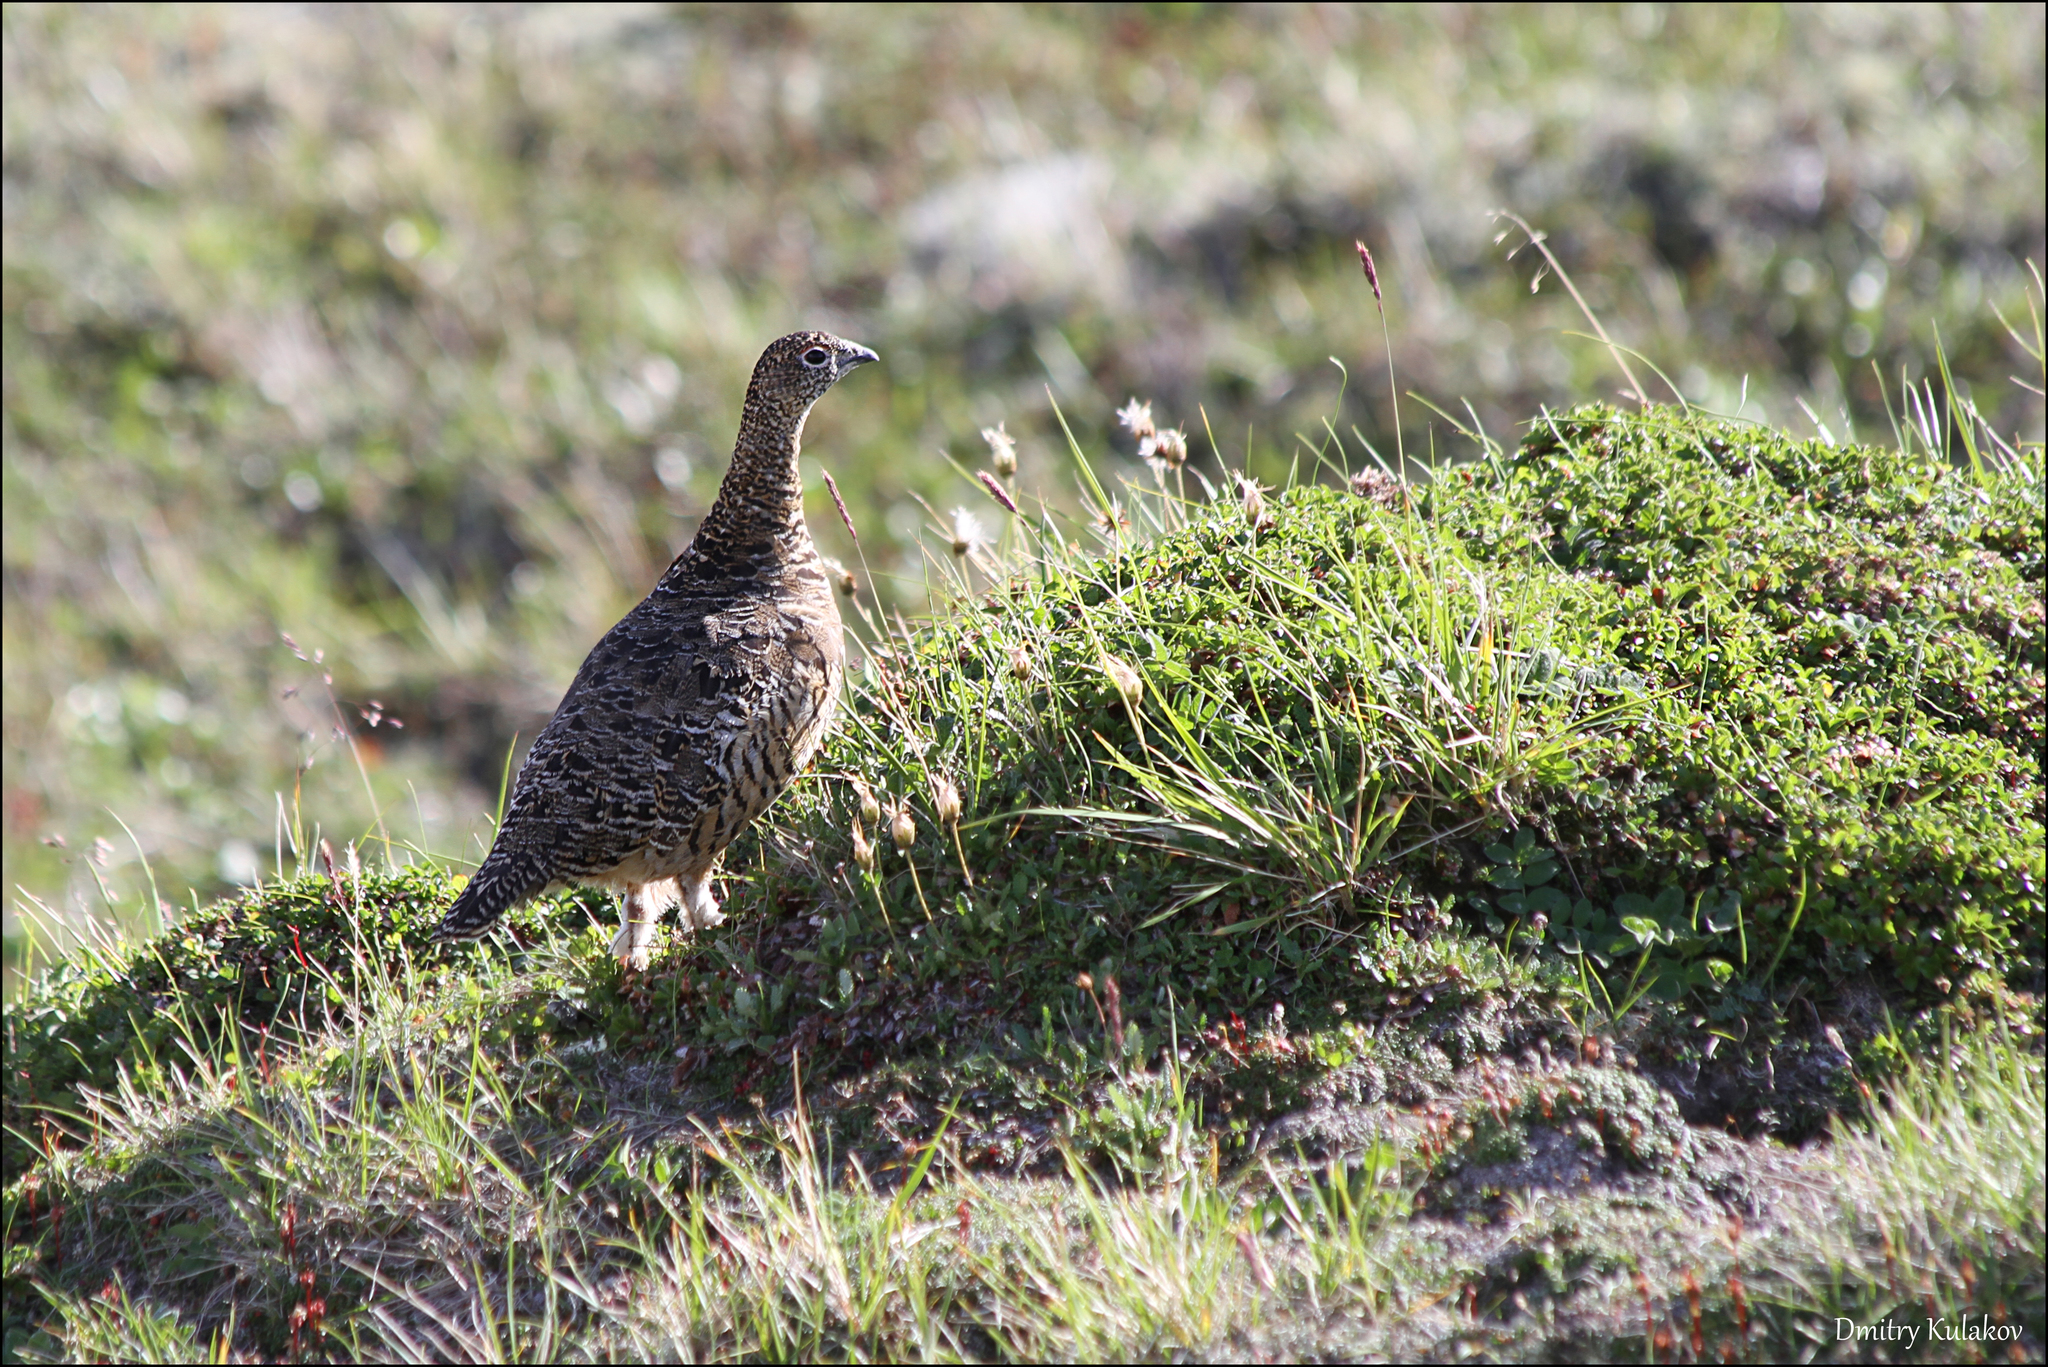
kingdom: Animalia
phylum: Chordata
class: Aves
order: Galliformes
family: Phasianidae
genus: Lagopus
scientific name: Lagopus lagopus
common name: Willow ptarmigan
